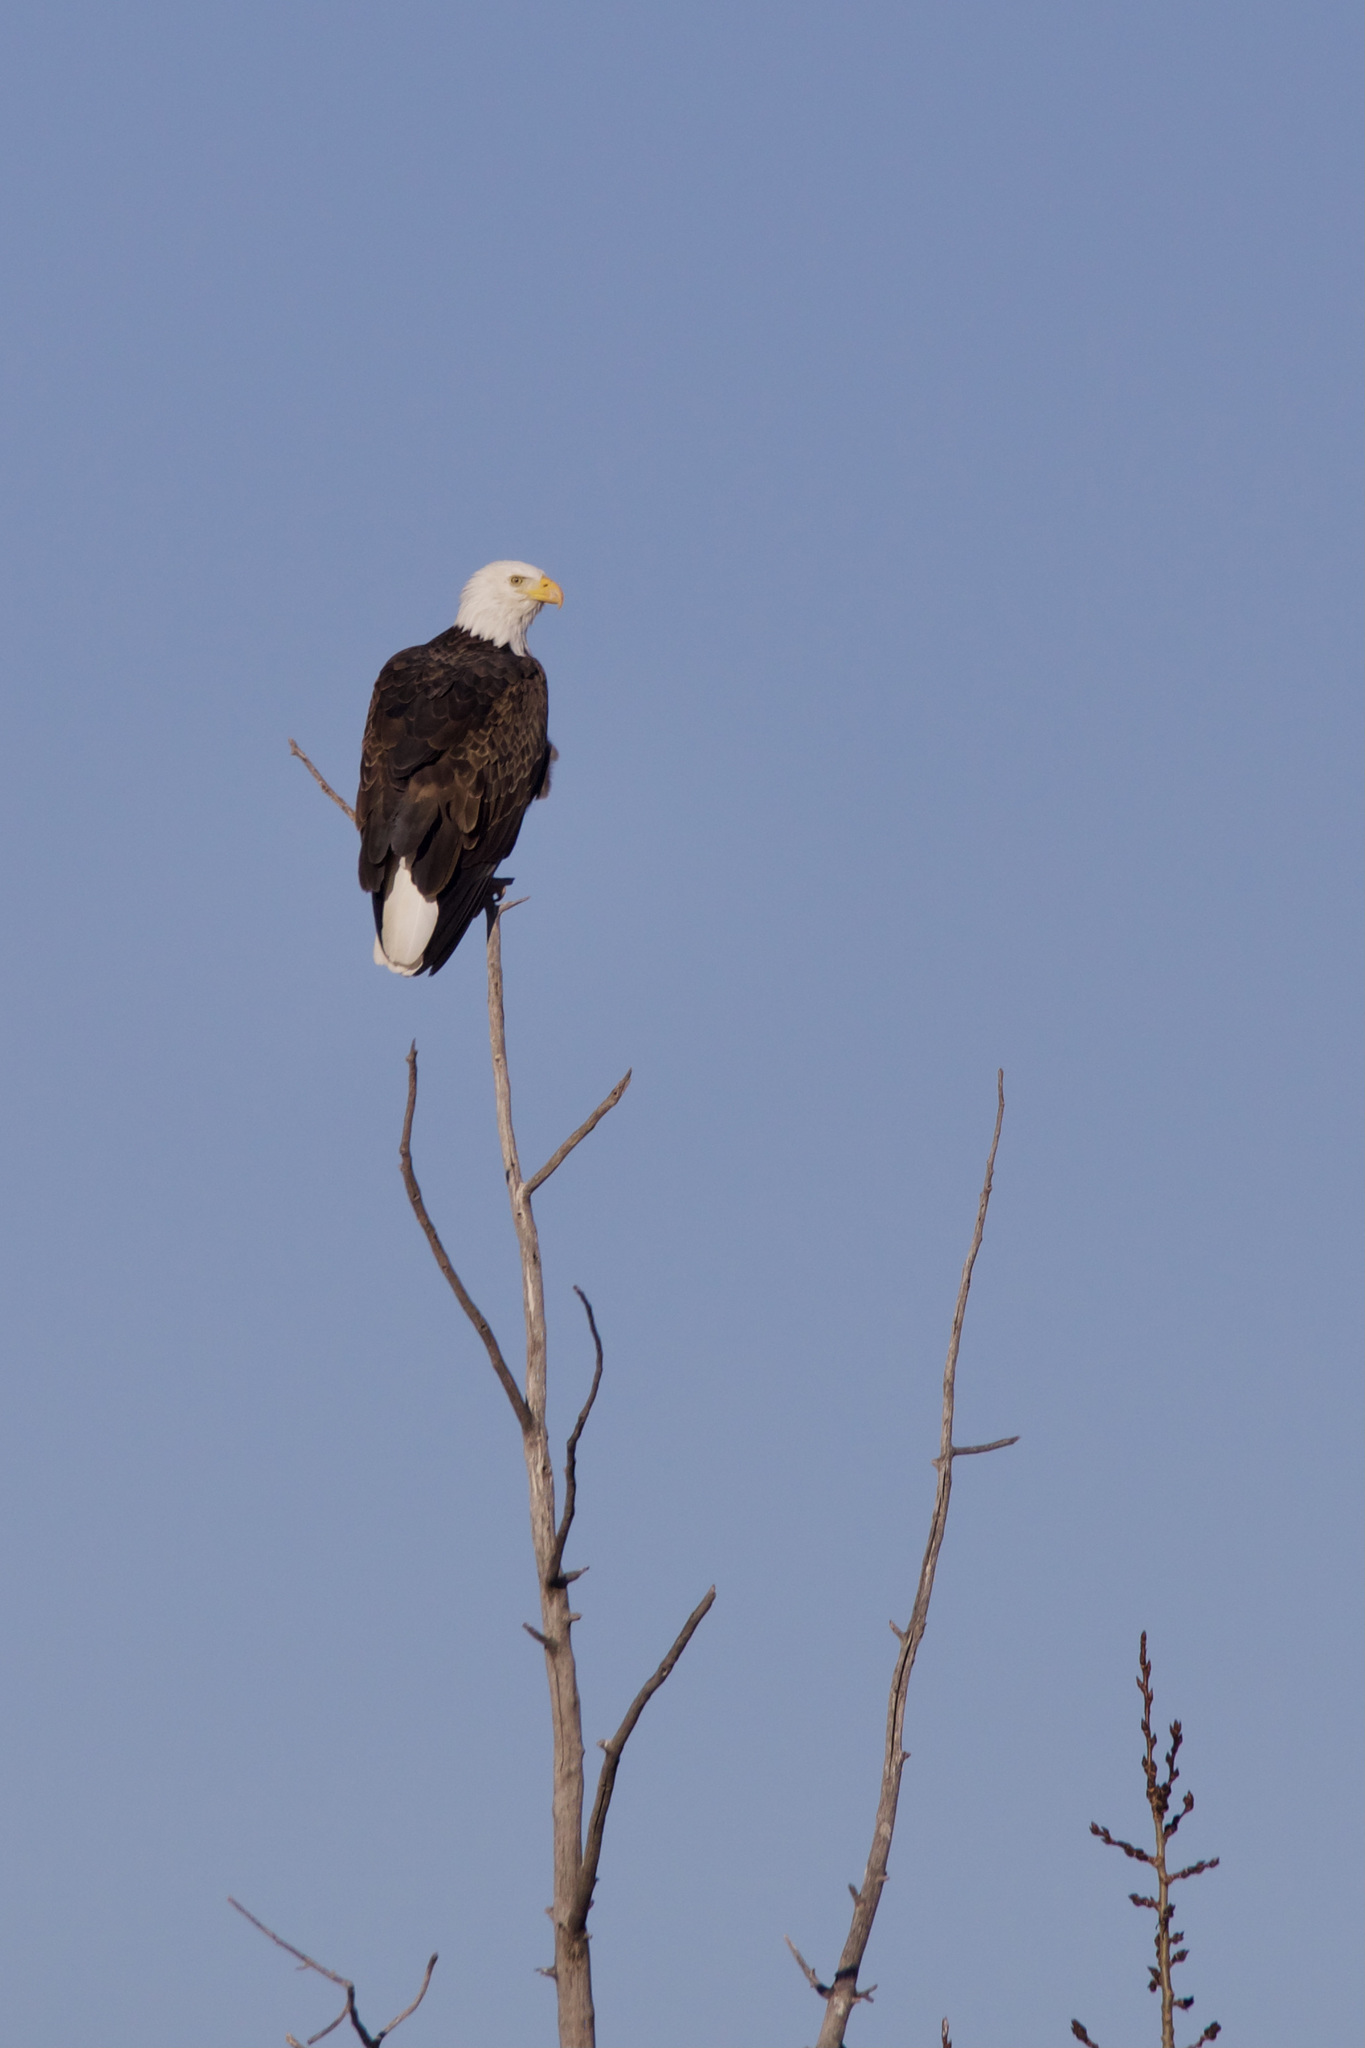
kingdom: Animalia
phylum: Chordata
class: Aves
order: Accipitriformes
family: Accipitridae
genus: Haliaeetus
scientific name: Haliaeetus leucocephalus
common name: Bald eagle
